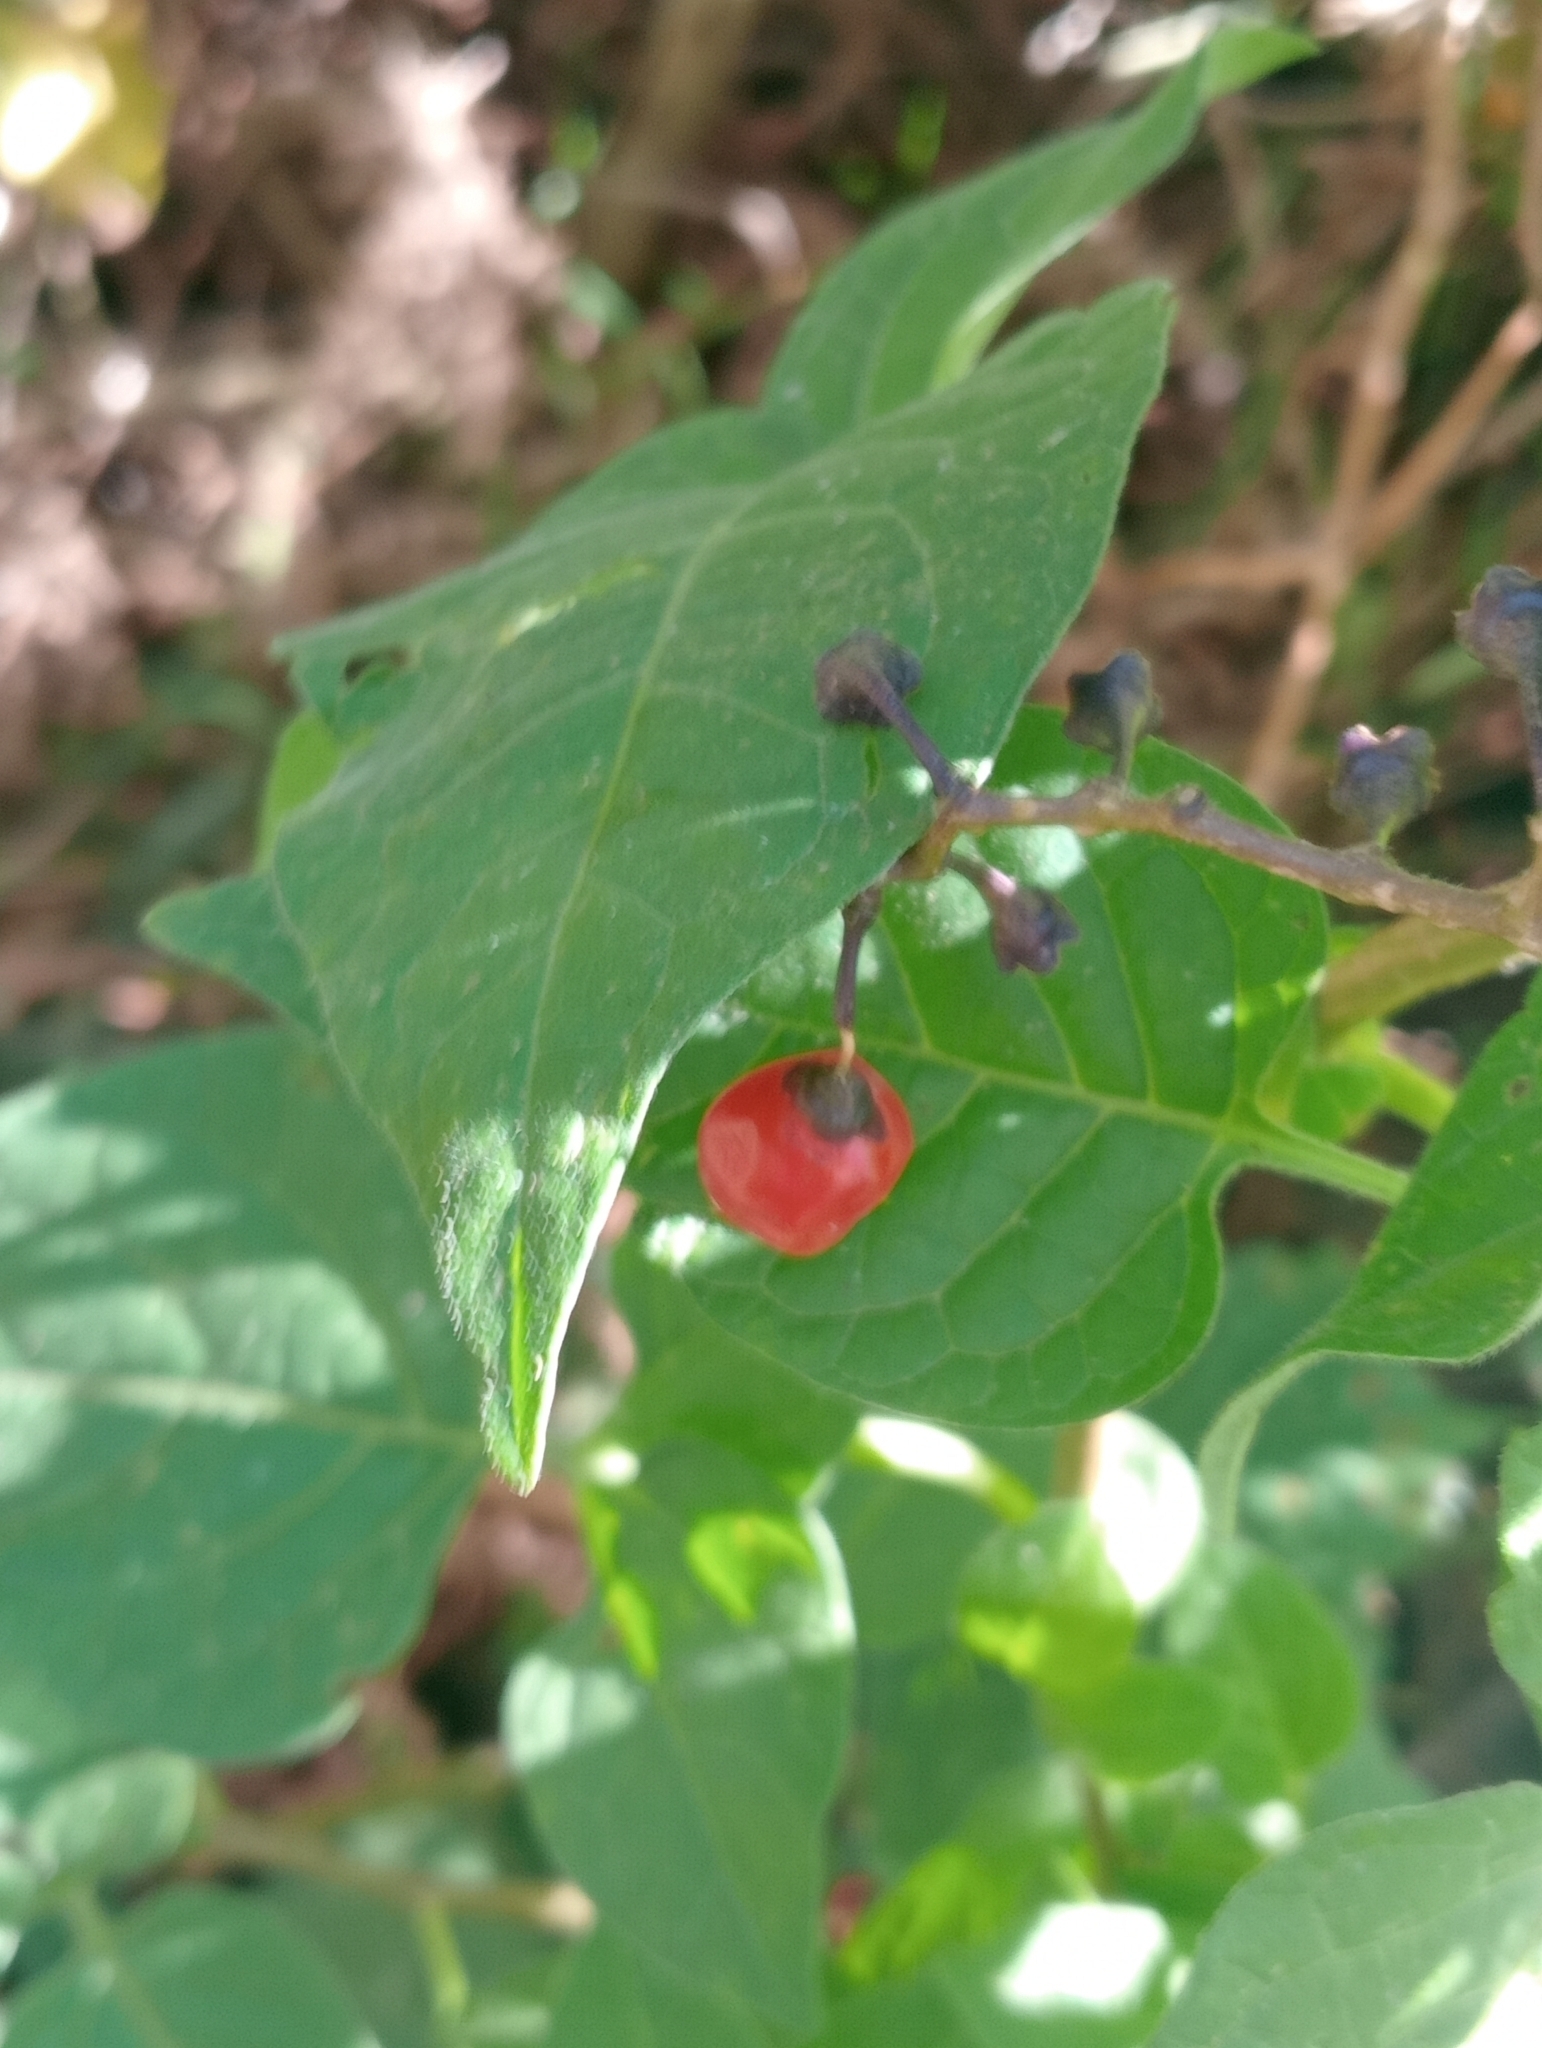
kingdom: Plantae
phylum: Tracheophyta
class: Magnoliopsida
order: Solanales
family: Solanaceae
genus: Solanum
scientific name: Solanum dulcamara
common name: Climbing nightshade
